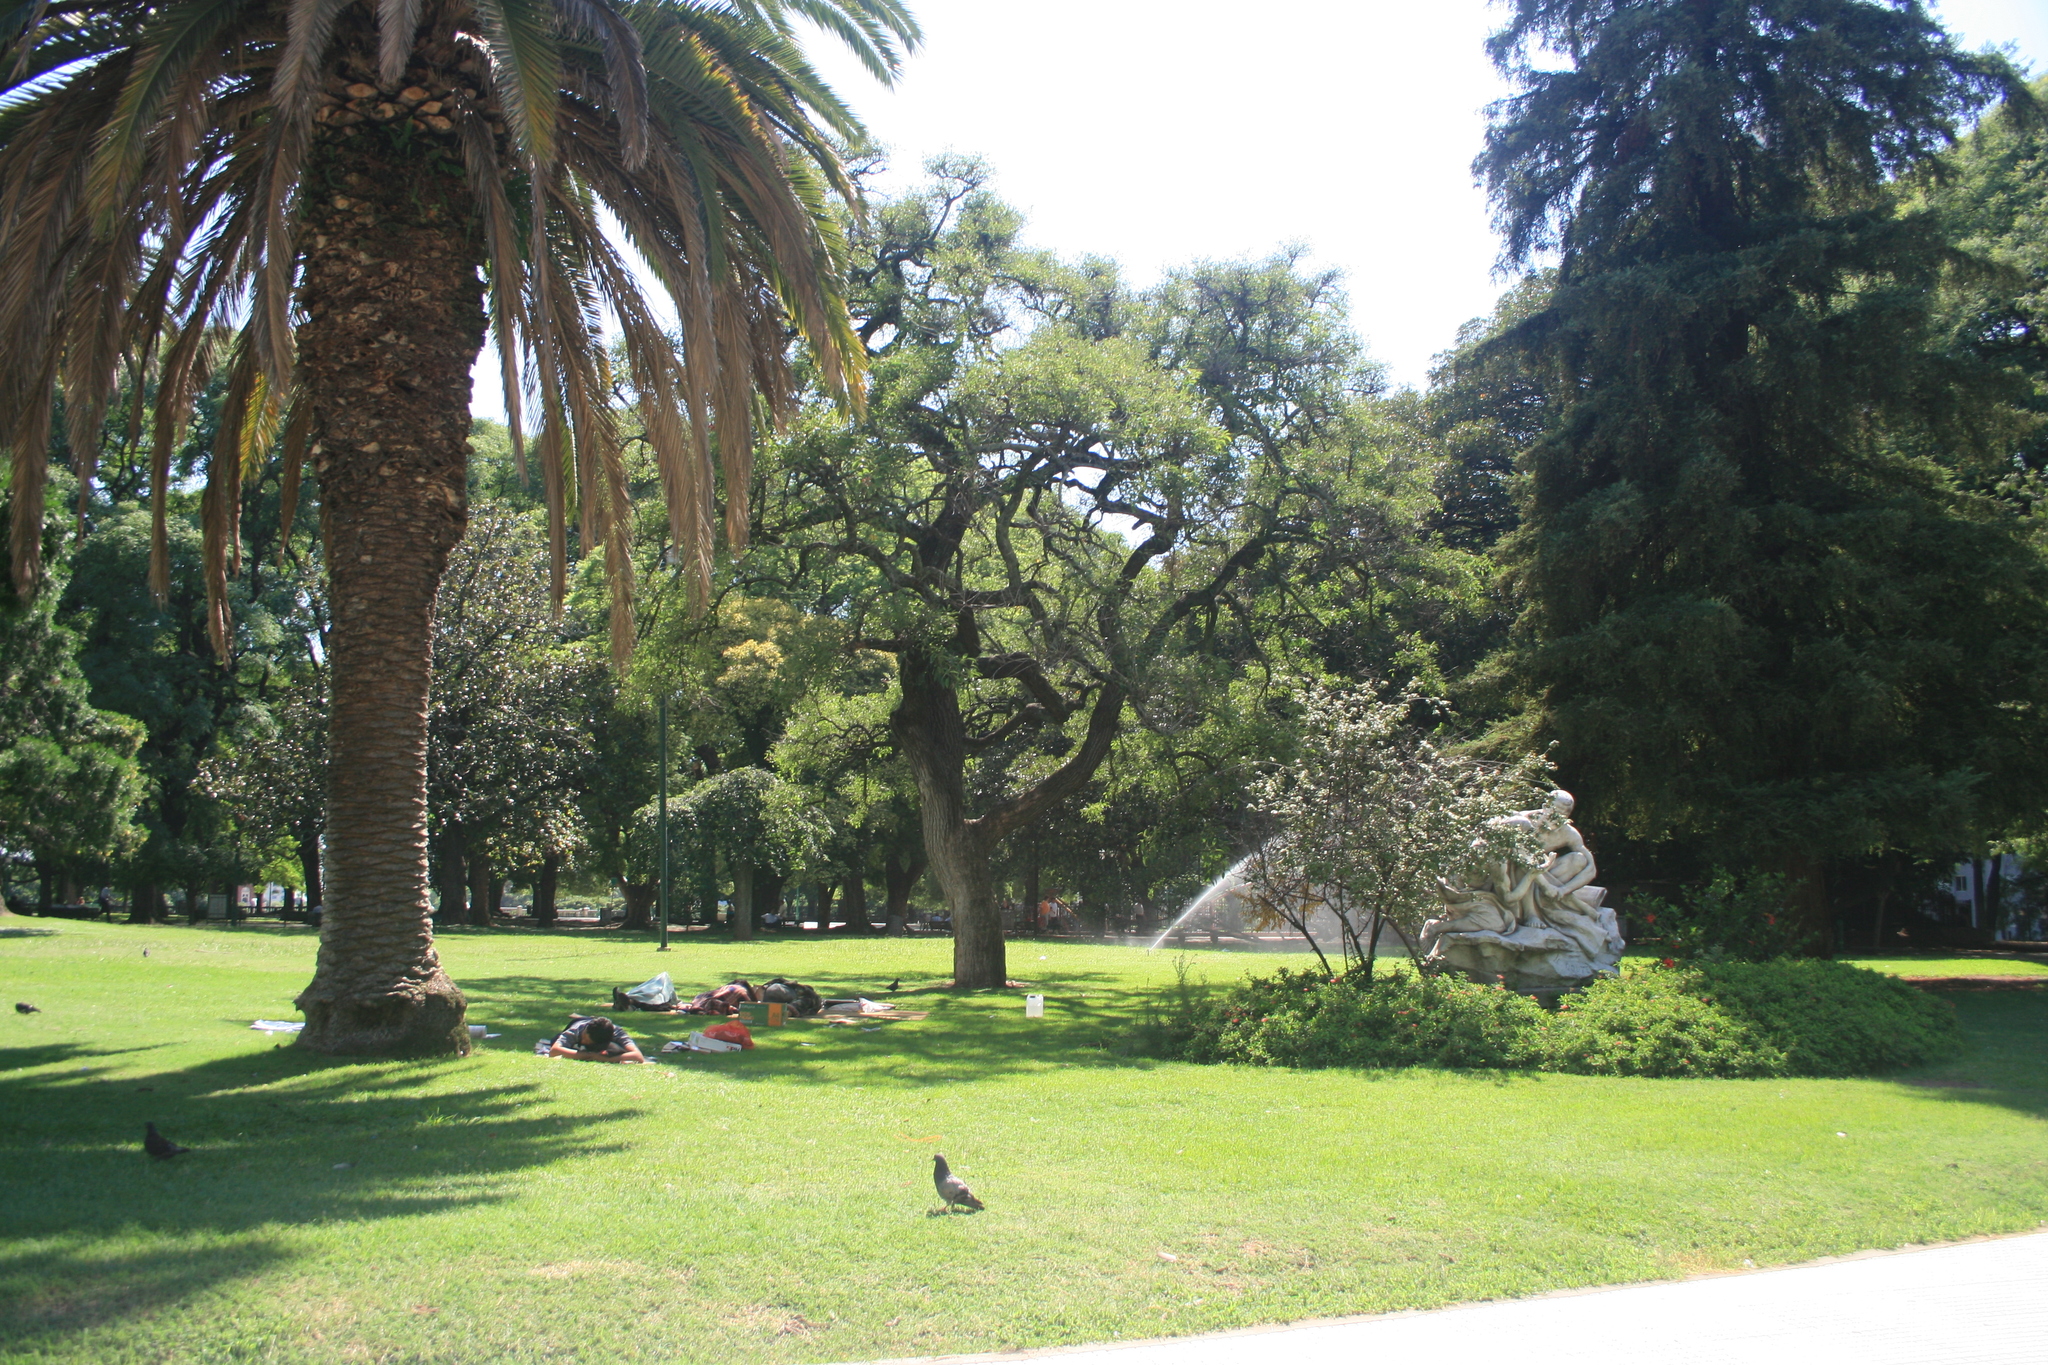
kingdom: Animalia
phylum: Chordata
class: Aves
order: Columbiformes
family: Columbidae
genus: Columba
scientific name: Columba livia
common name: Rock pigeon
